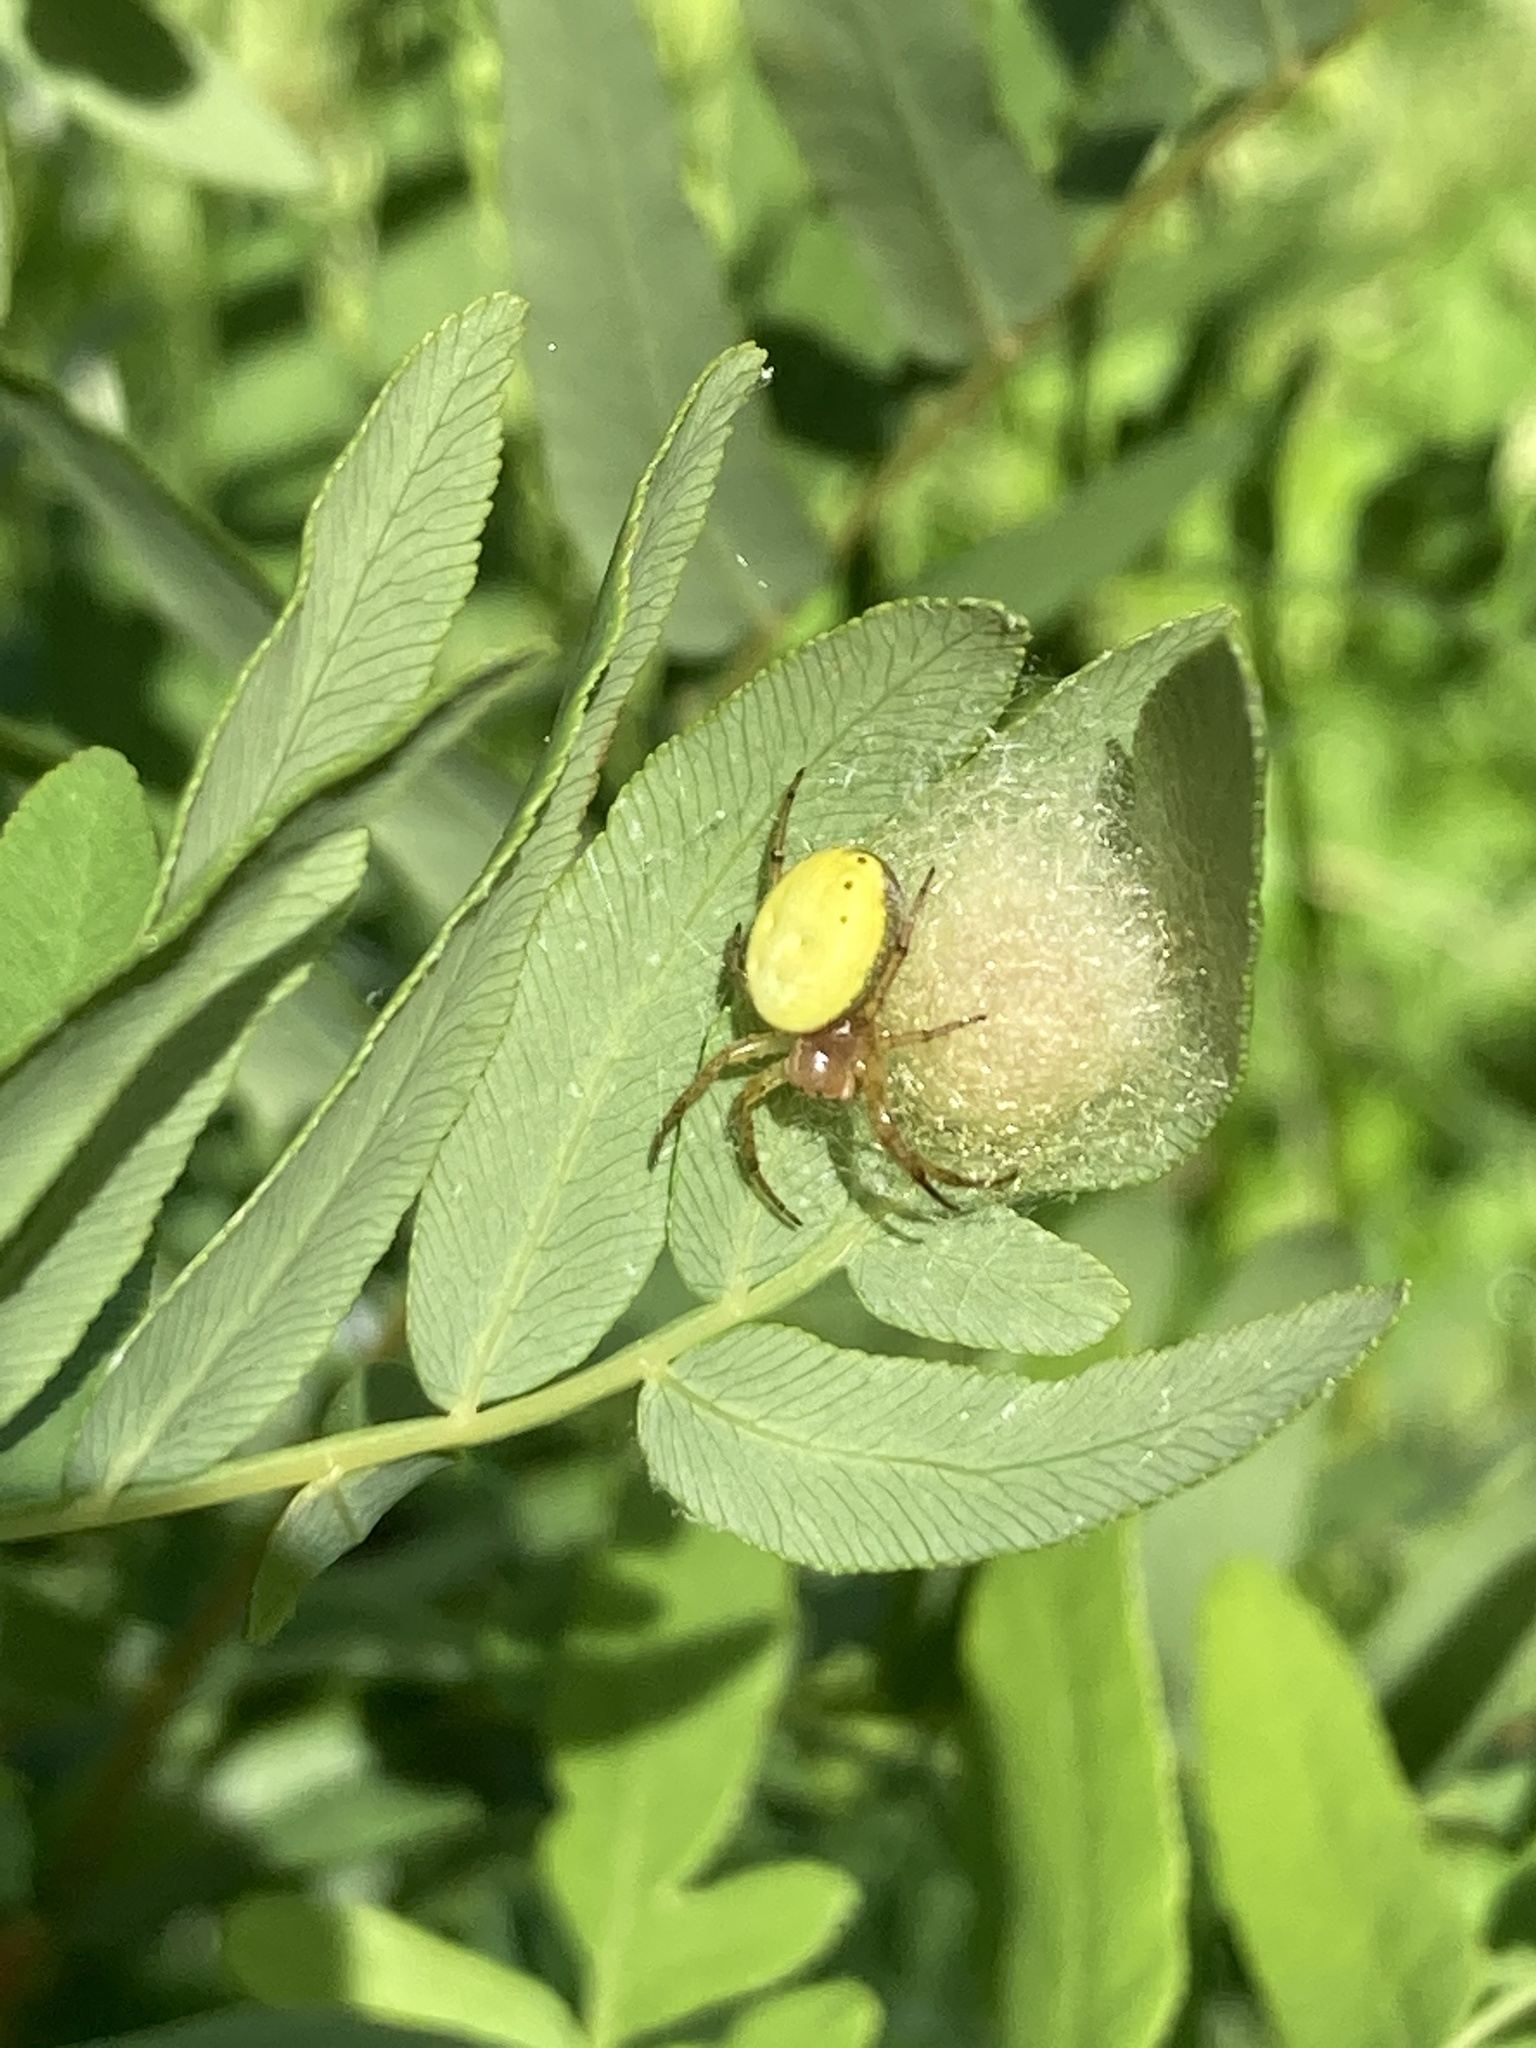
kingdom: Animalia
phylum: Arthropoda
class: Arachnida
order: Araneae
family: Araneidae
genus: Araniella
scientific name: Araniella displicata
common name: Sixspotted orb weaver
